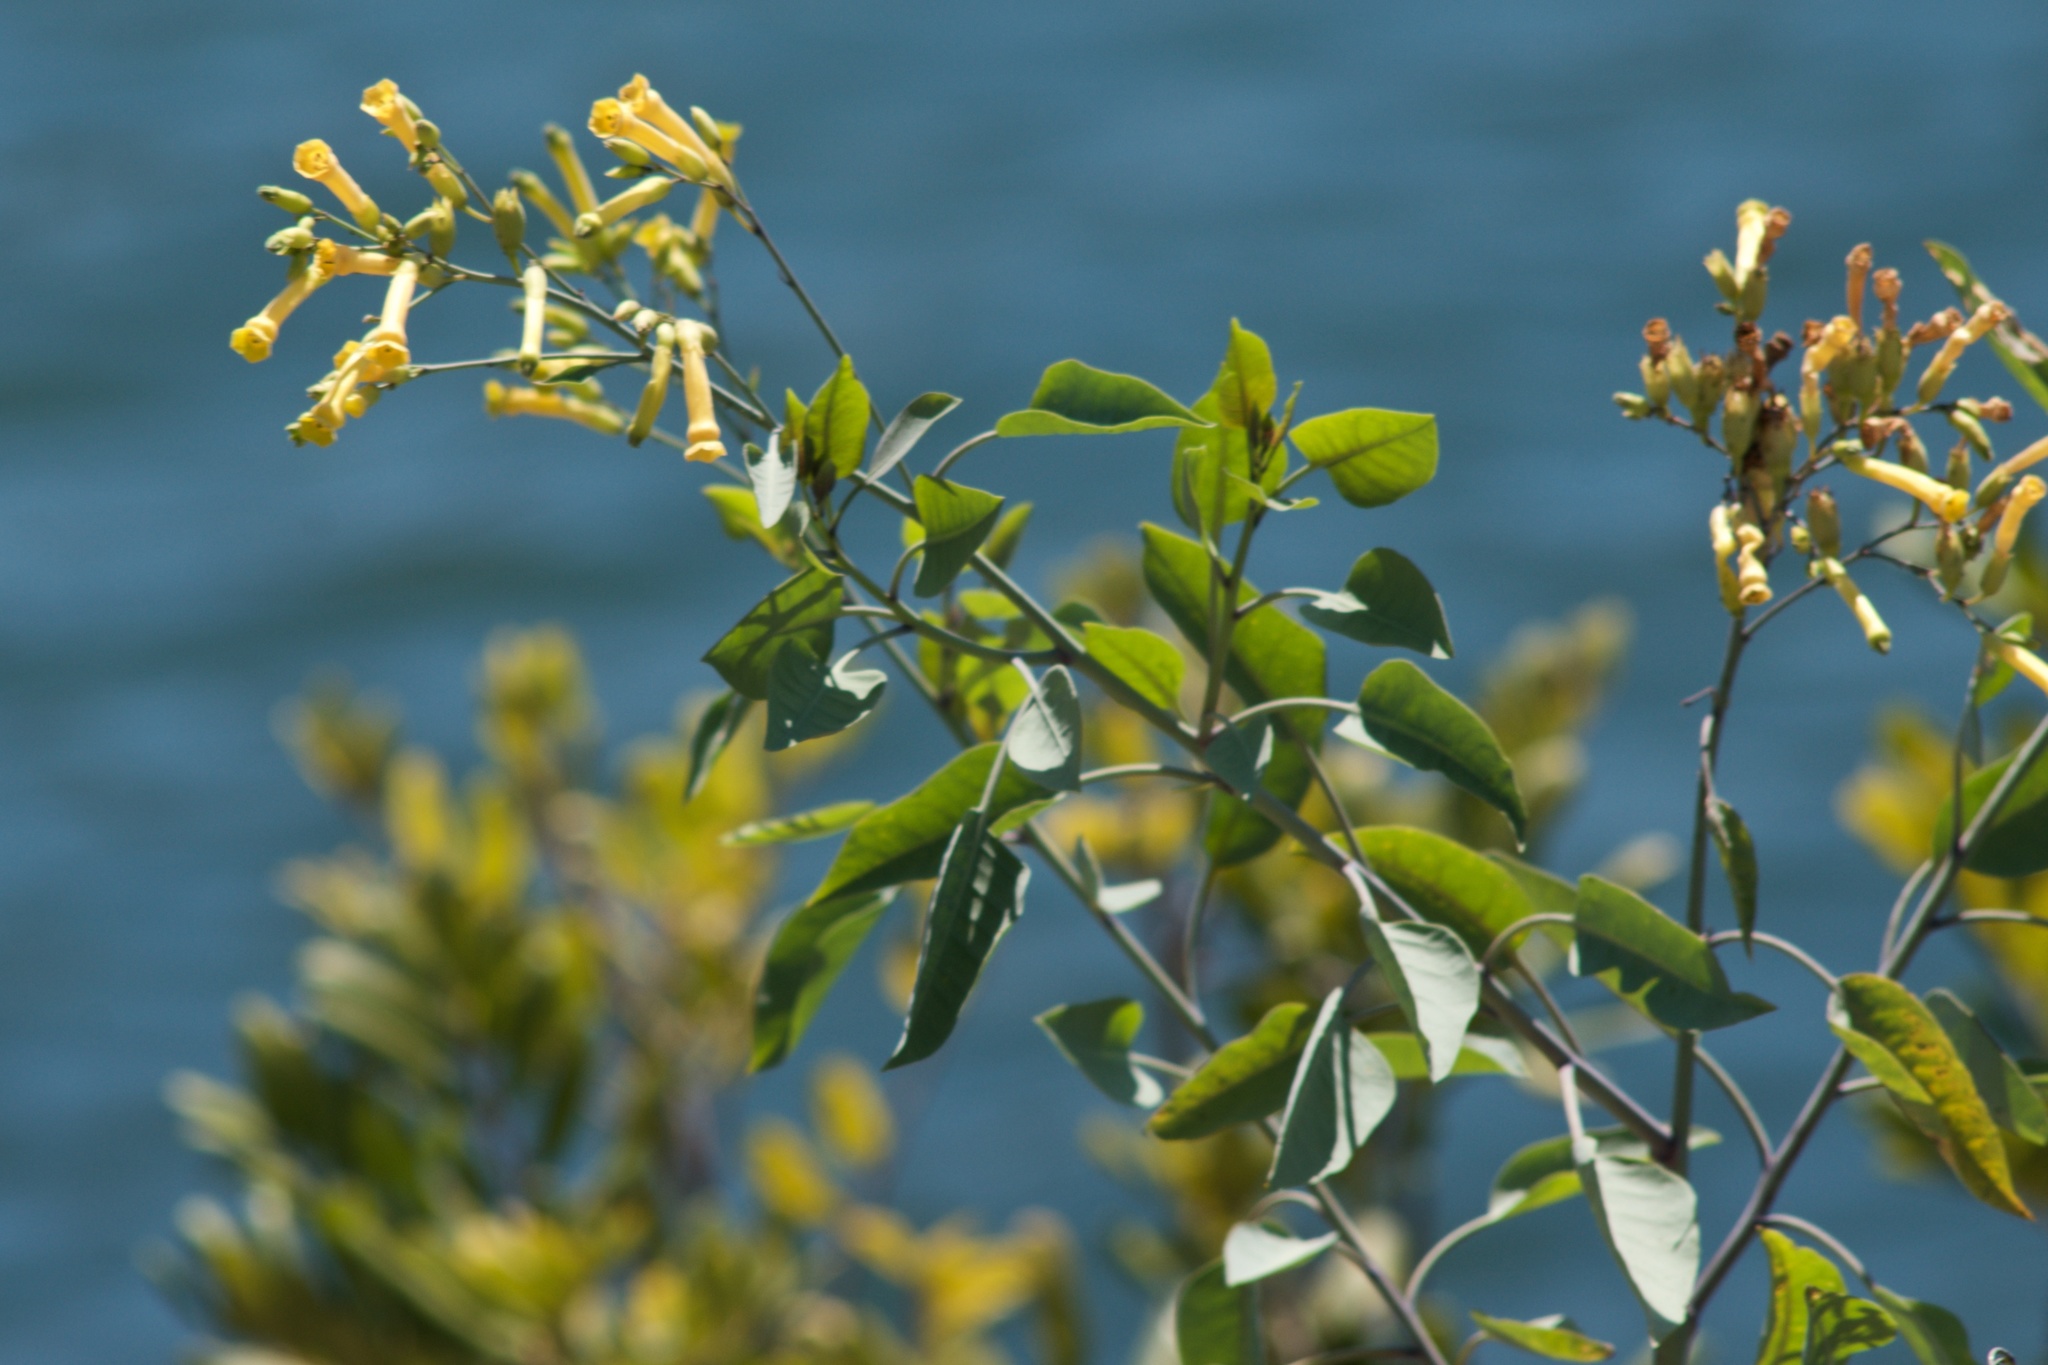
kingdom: Plantae
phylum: Tracheophyta
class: Magnoliopsida
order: Solanales
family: Solanaceae
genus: Nicotiana
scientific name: Nicotiana glauca
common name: Tree tobacco
